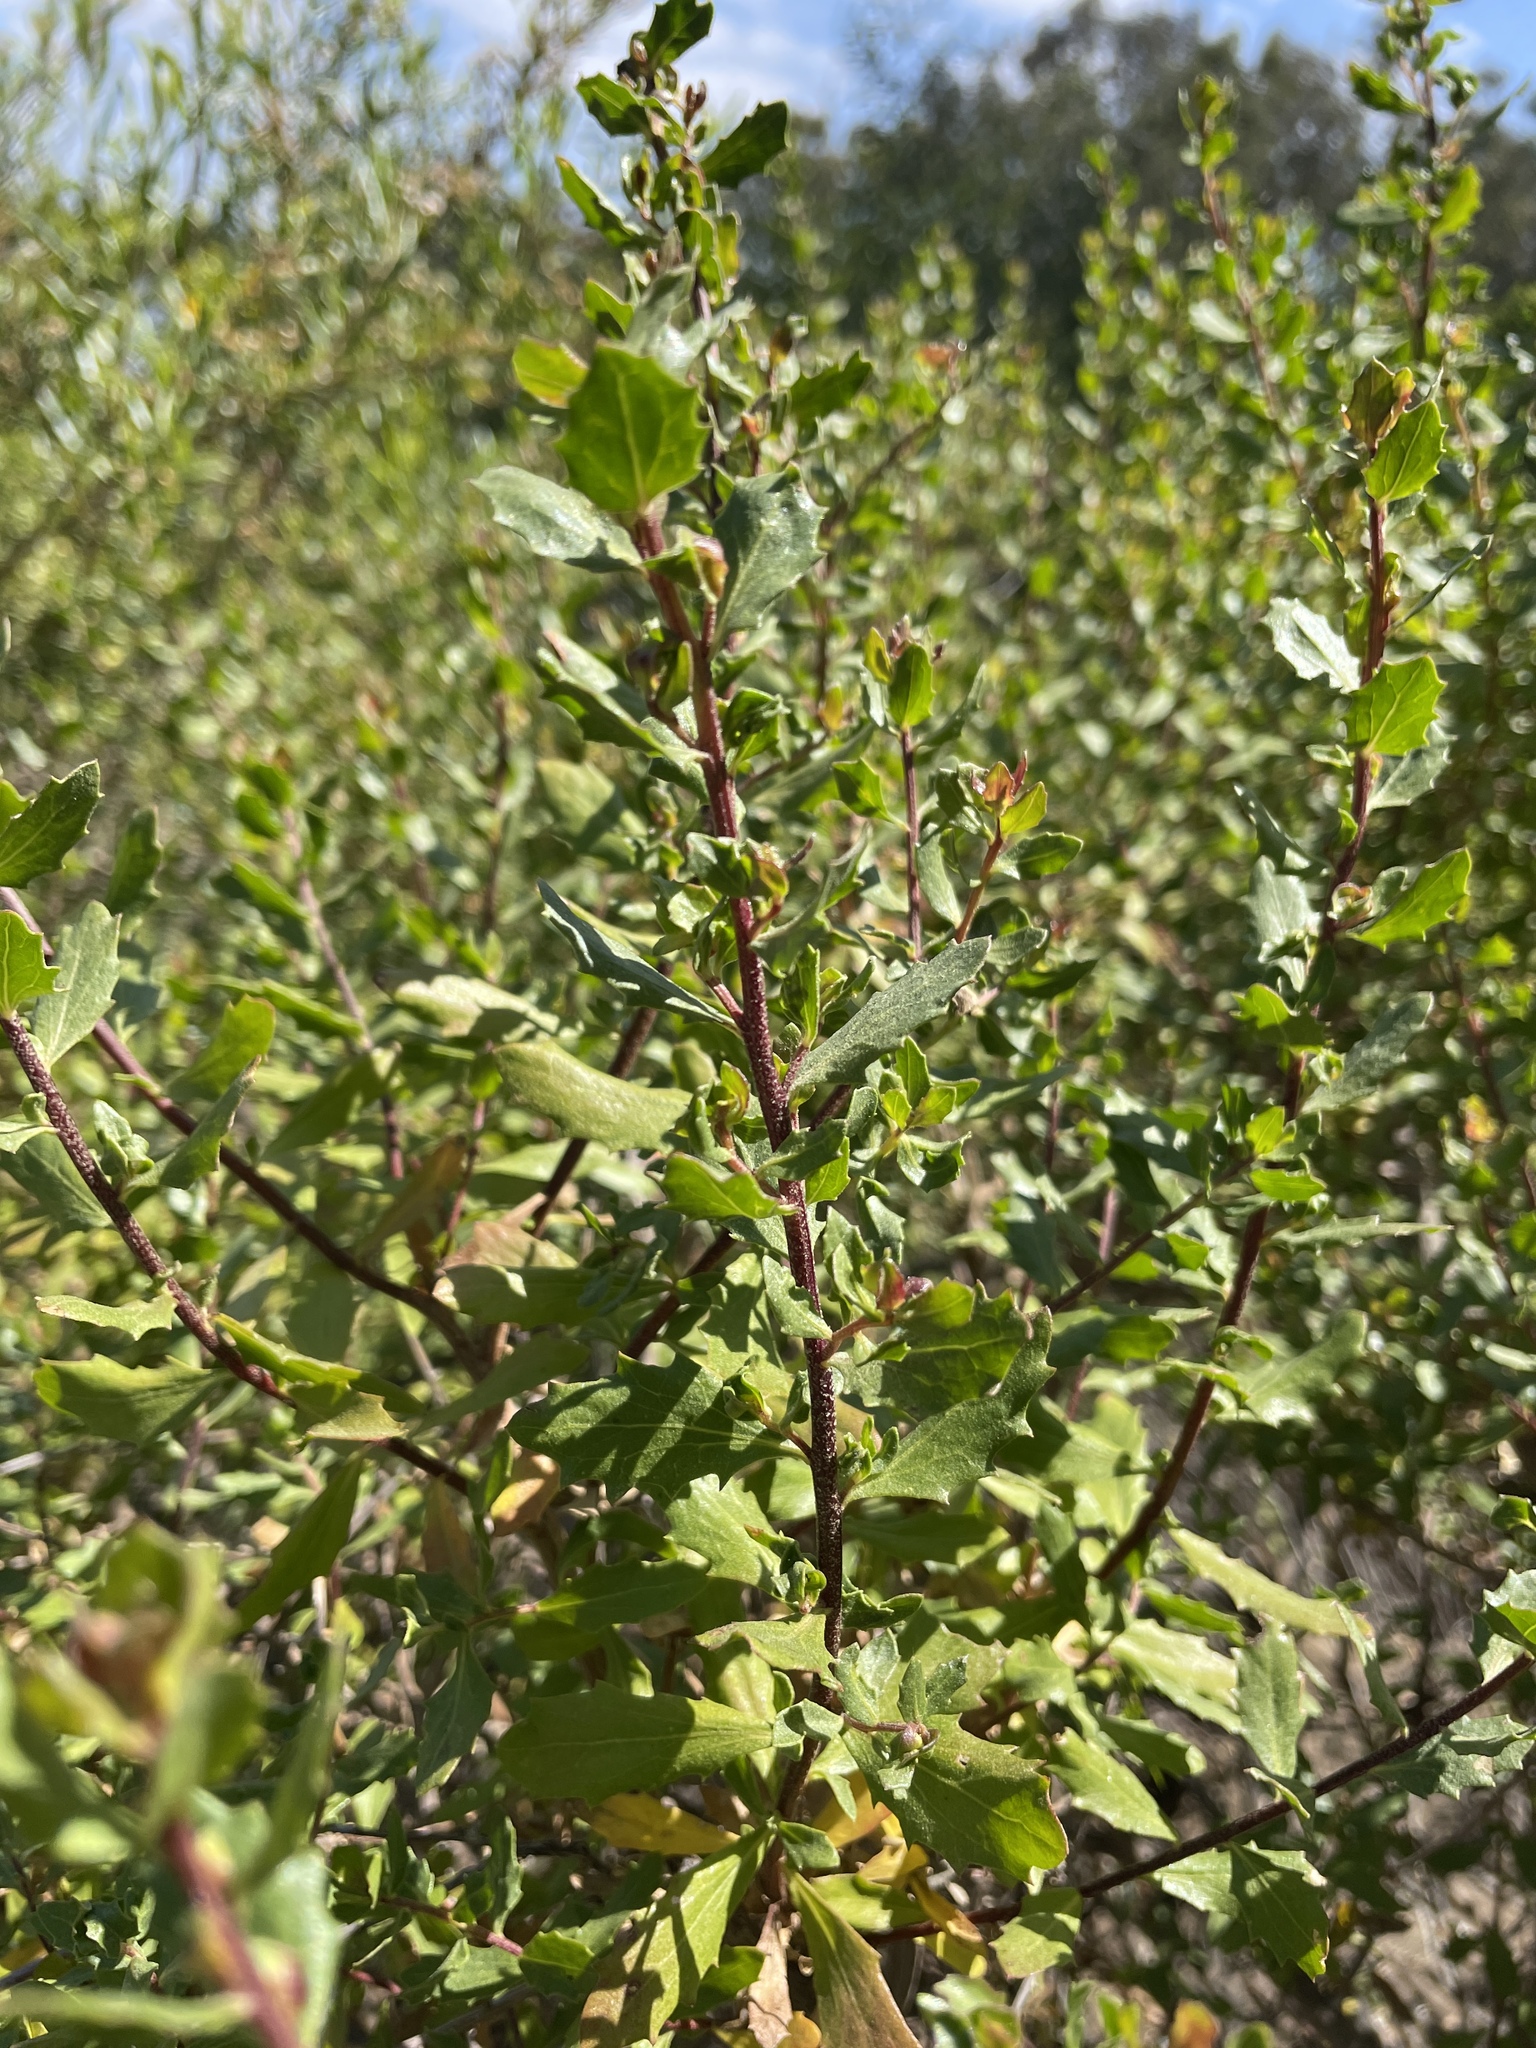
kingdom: Plantae
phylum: Tracheophyta
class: Magnoliopsida
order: Asterales
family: Asteraceae
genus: Baccharis
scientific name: Baccharis pilularis
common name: Coyotebrush
